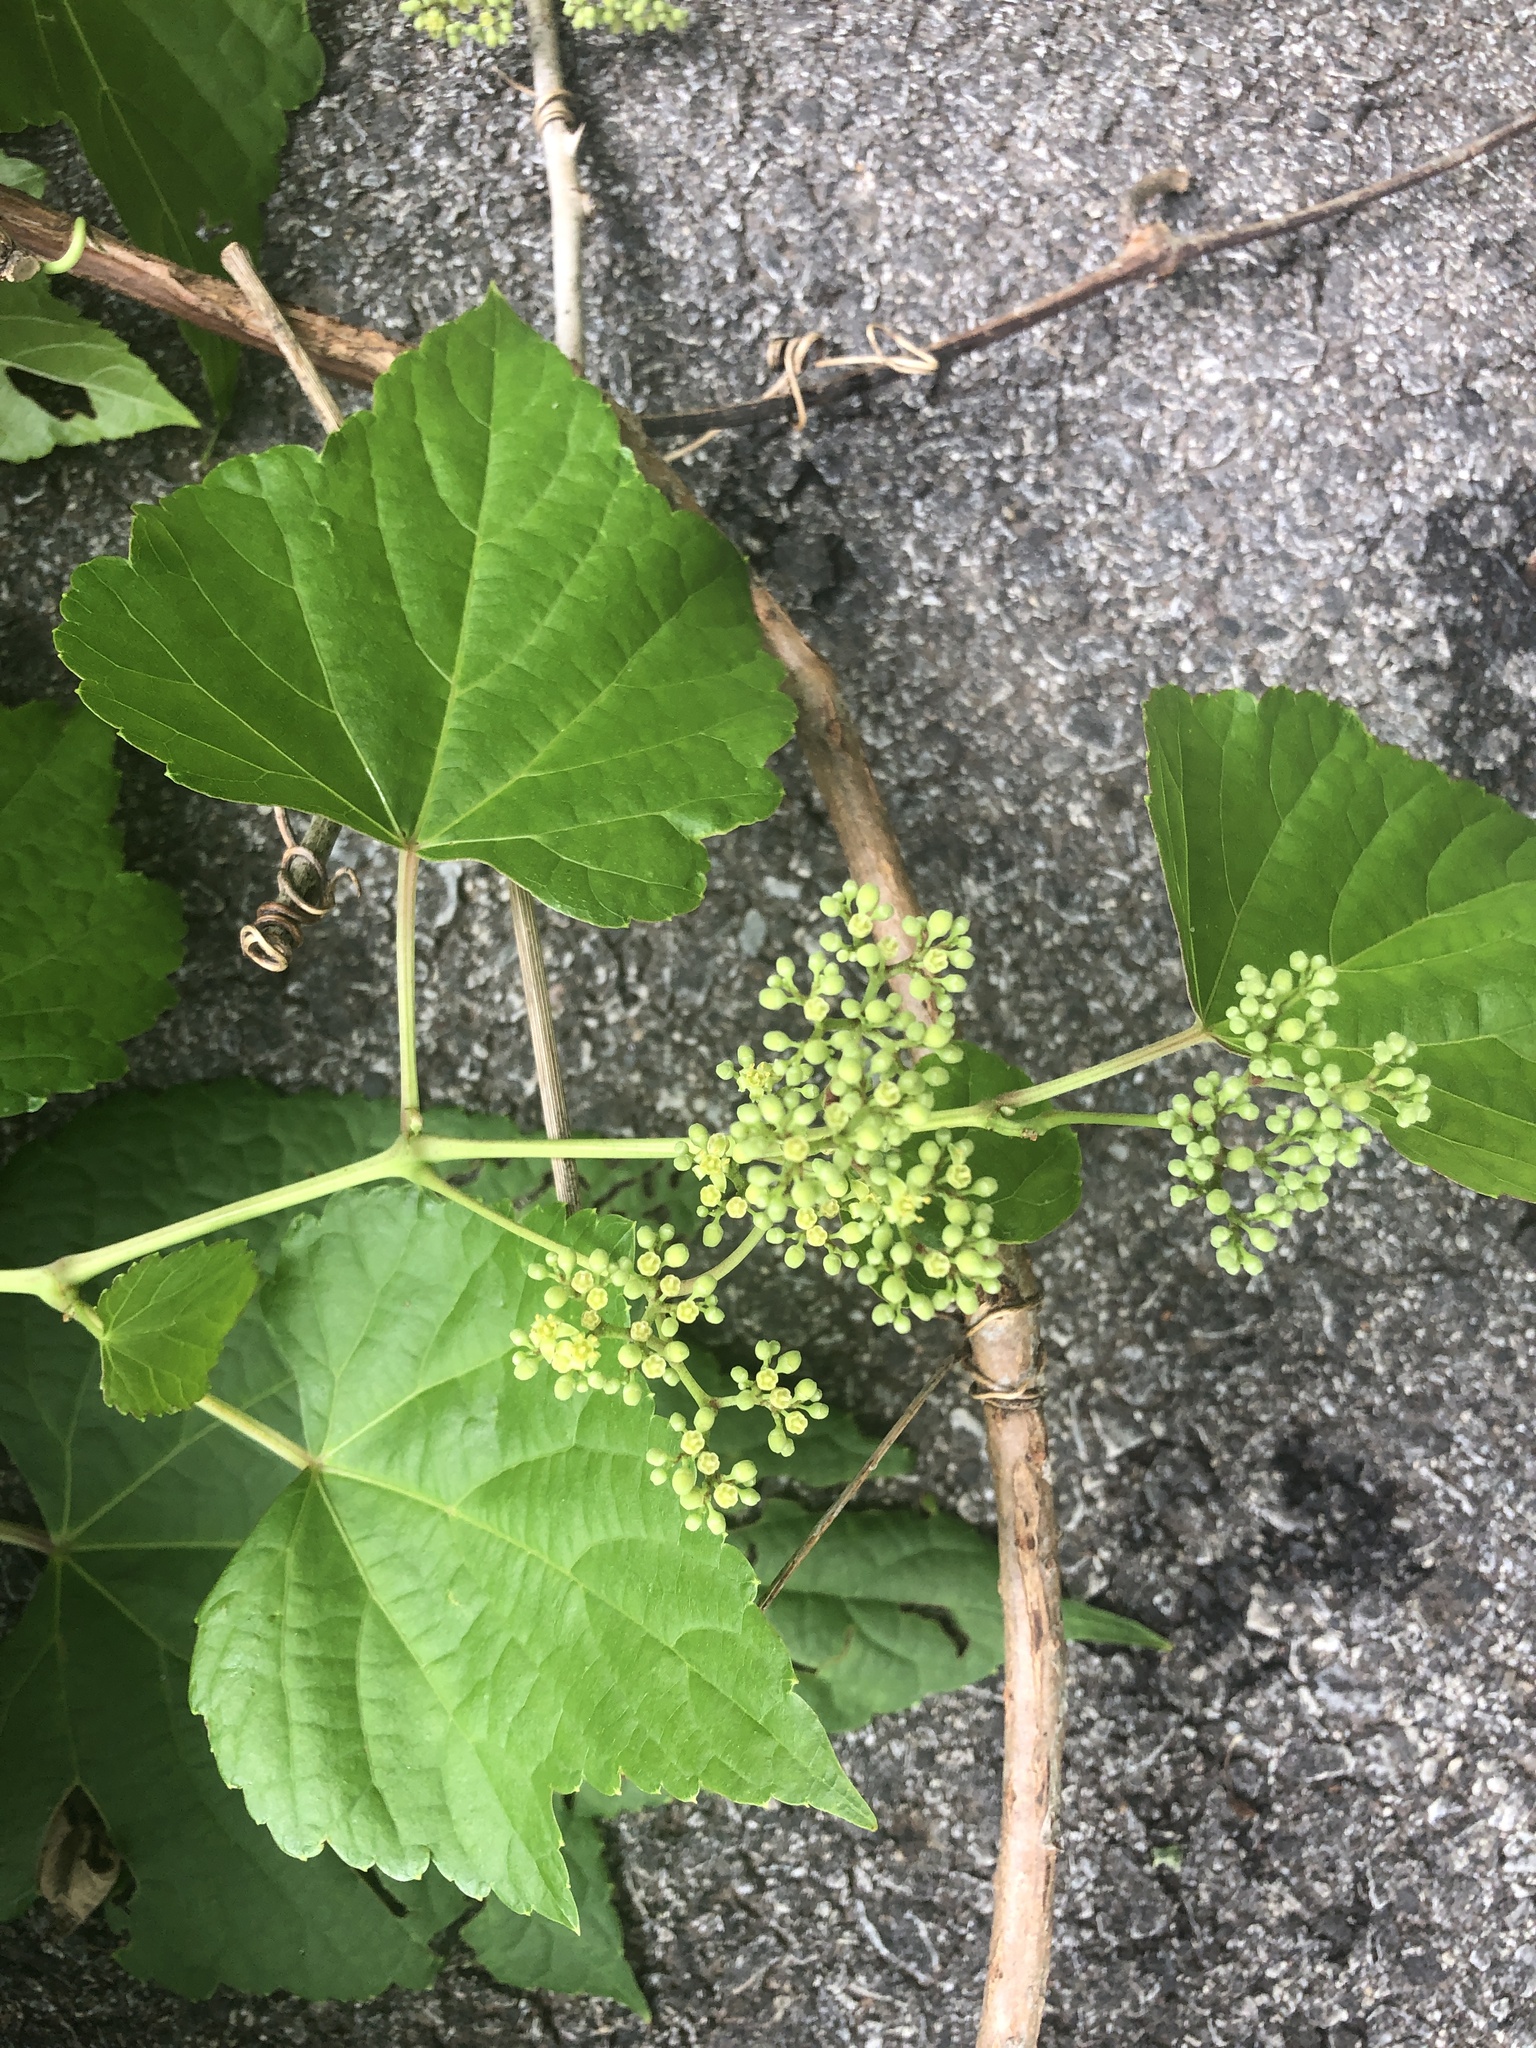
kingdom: Plantae
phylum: Tracheophyta
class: Magnoliopsida
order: Vitales
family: Vitaceae
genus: Ampelopsis
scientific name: Ampelopsis glandulosa
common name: Amur peppervine
